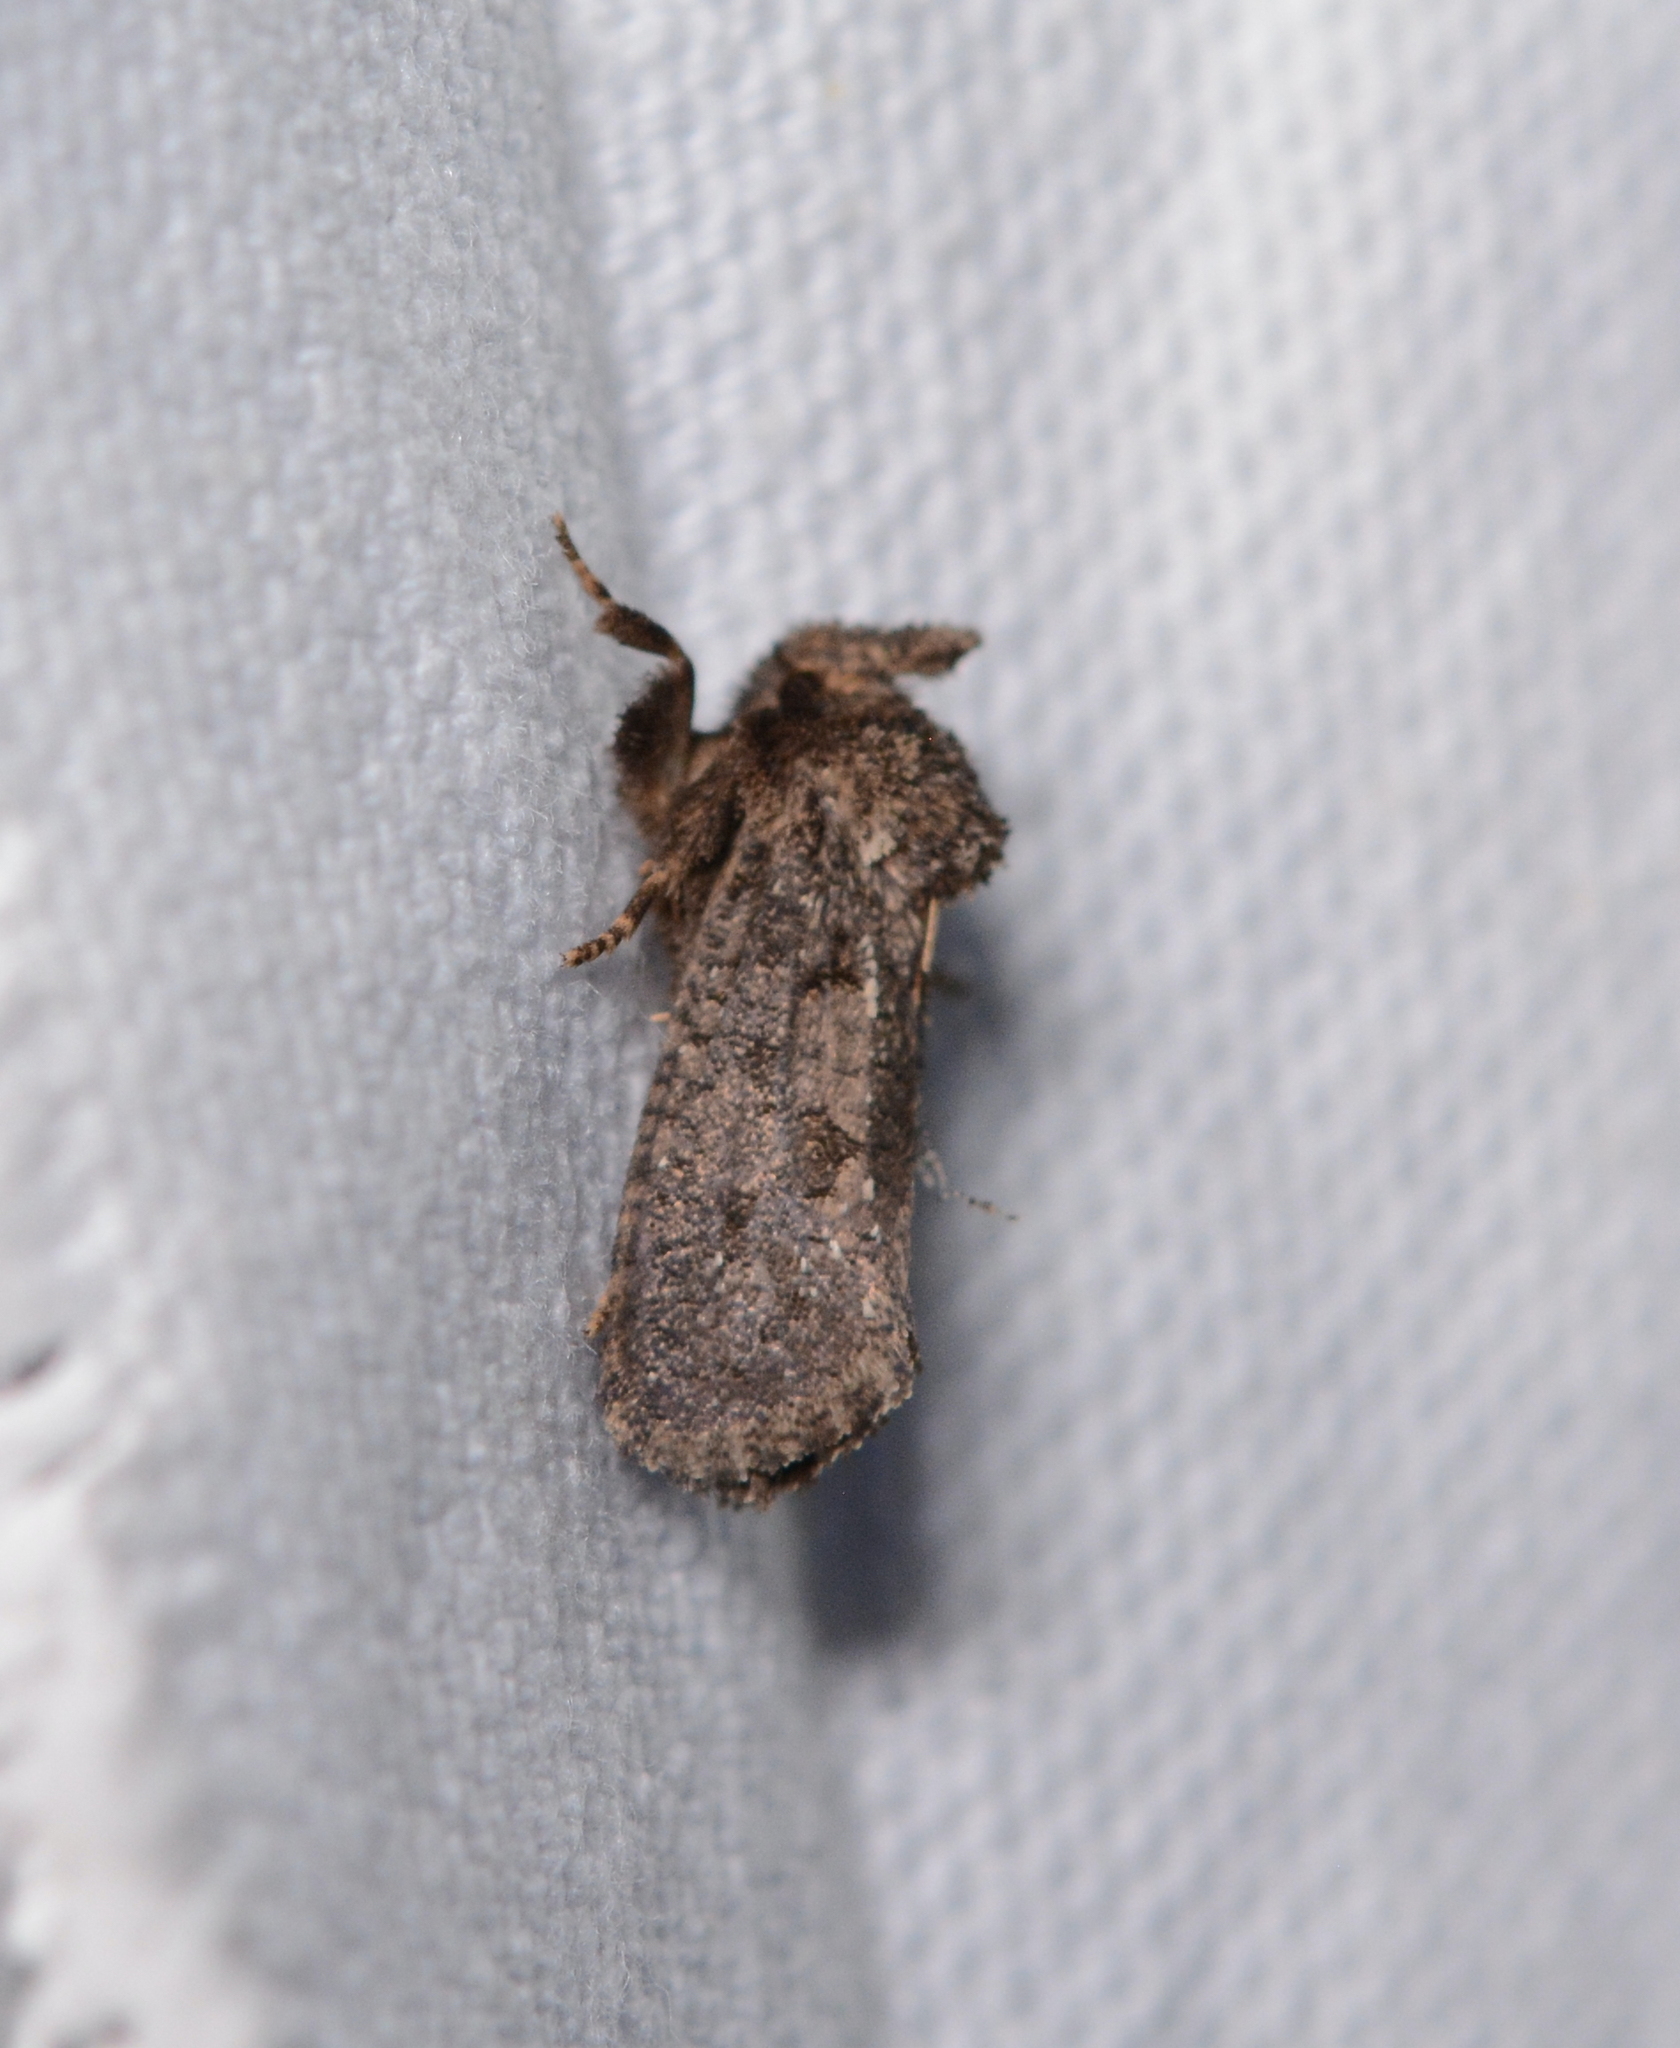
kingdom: Animalia
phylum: Arthropoda
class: Insecta
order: Lepidoptera
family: Tineidae
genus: Acrolophus
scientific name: Acrolophus arcanella
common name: Arcane grass tubeworm moth
